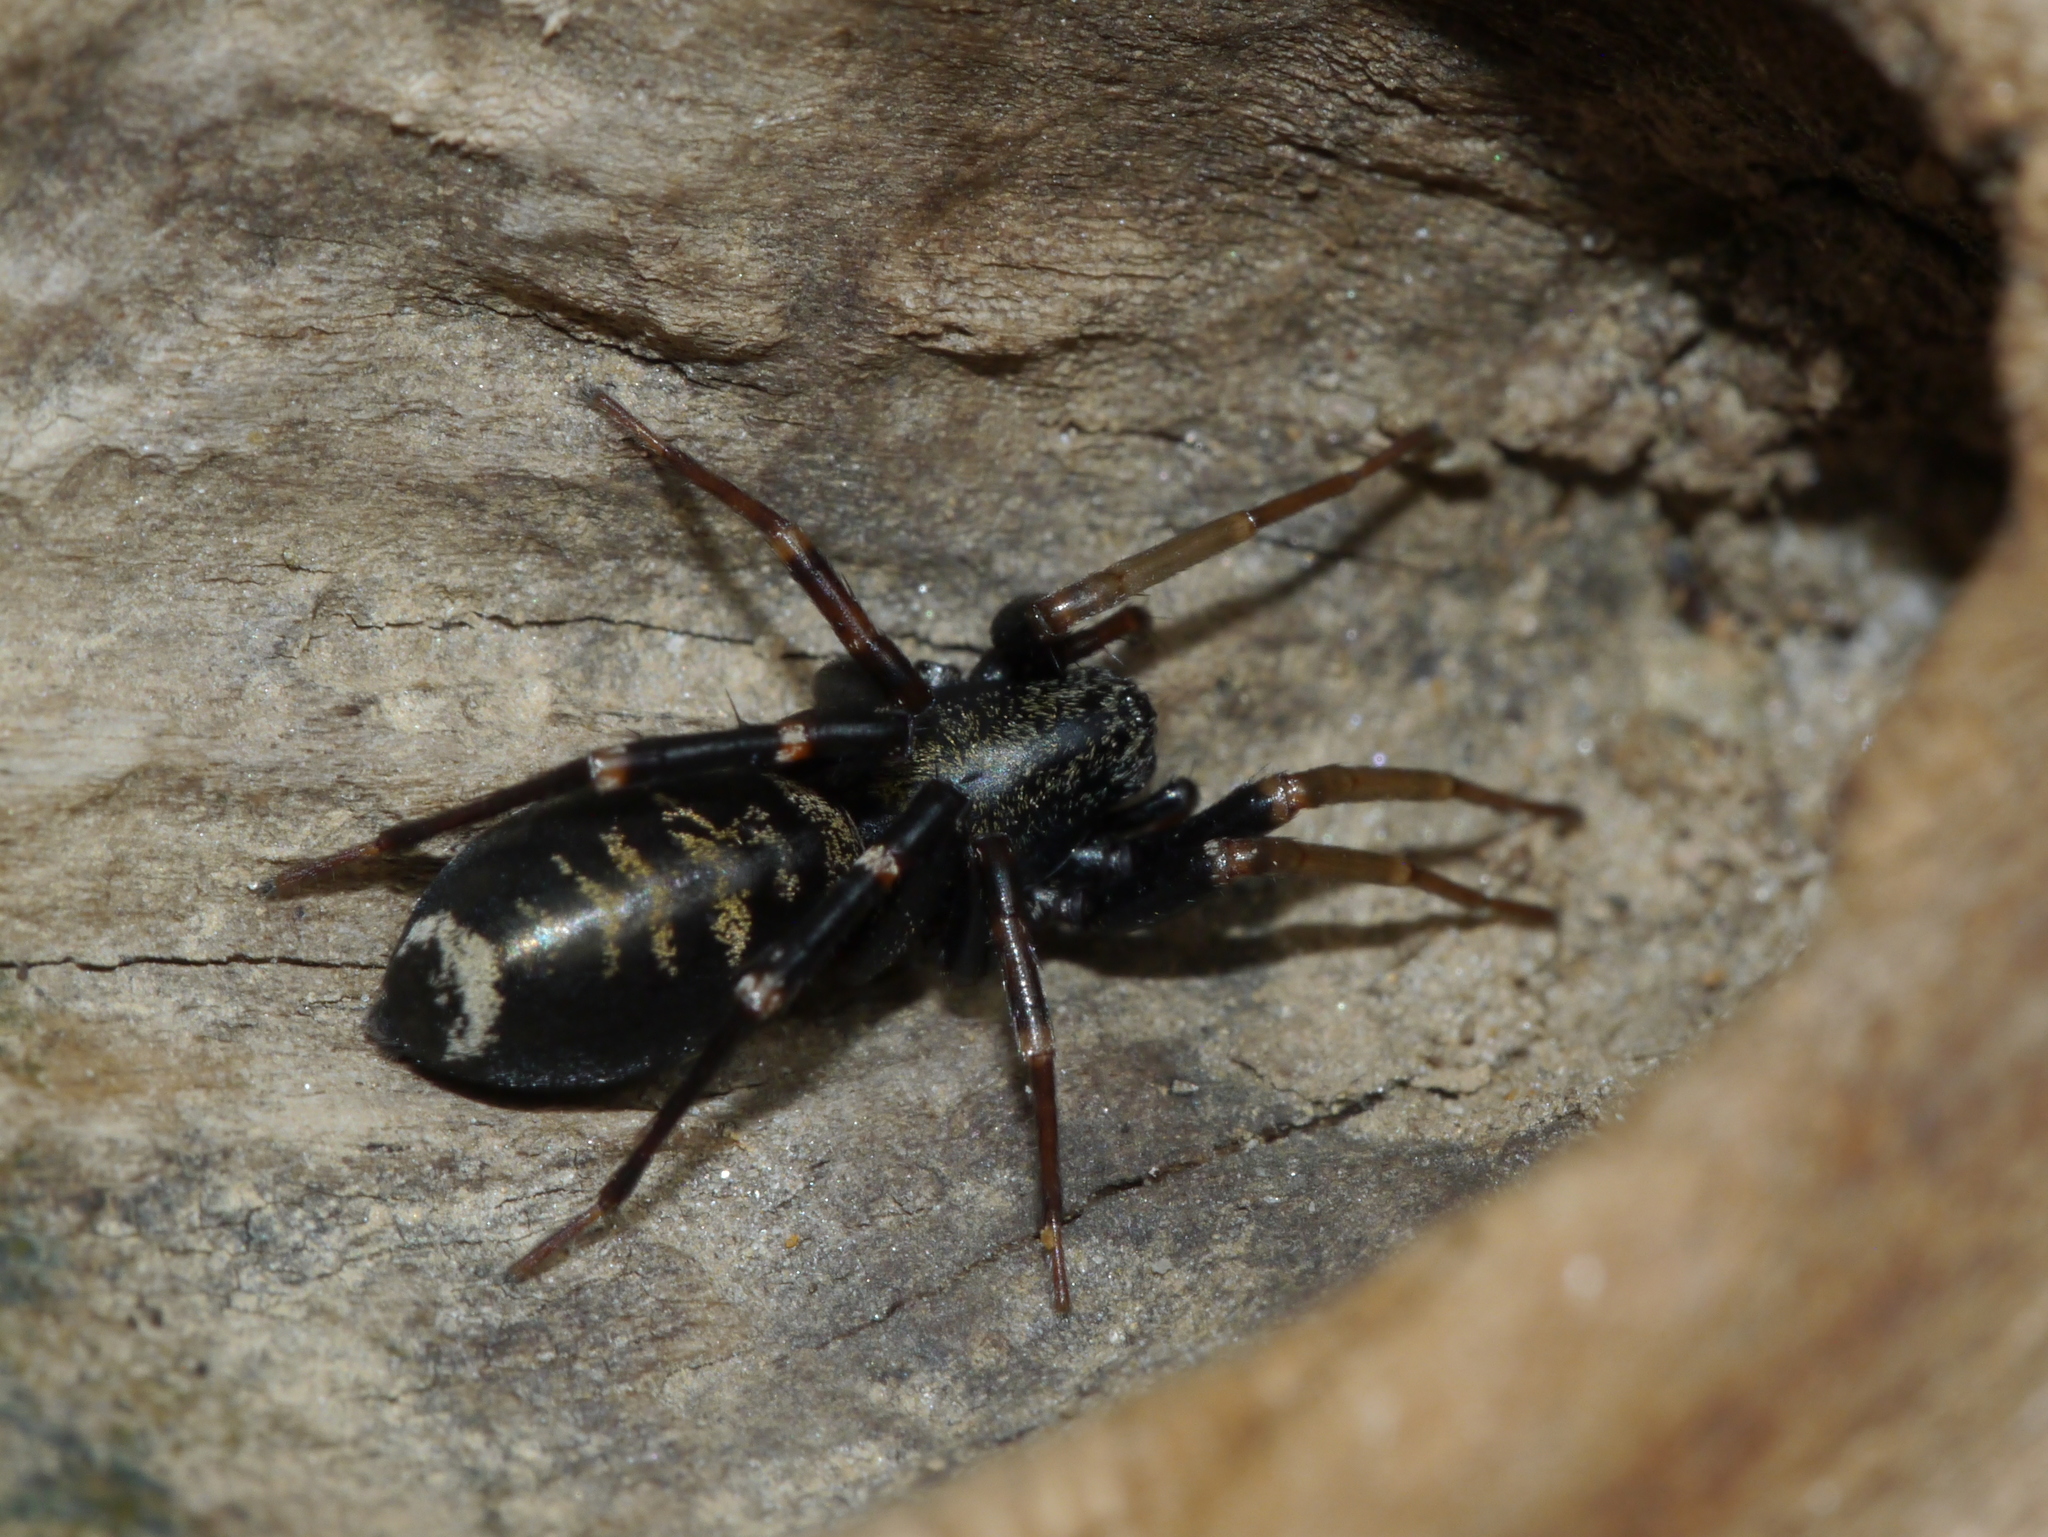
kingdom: Animalia
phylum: Arthropoda
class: Arachnida
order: Araneae
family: Corinnidae
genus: Castianeira
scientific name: Castianeira
